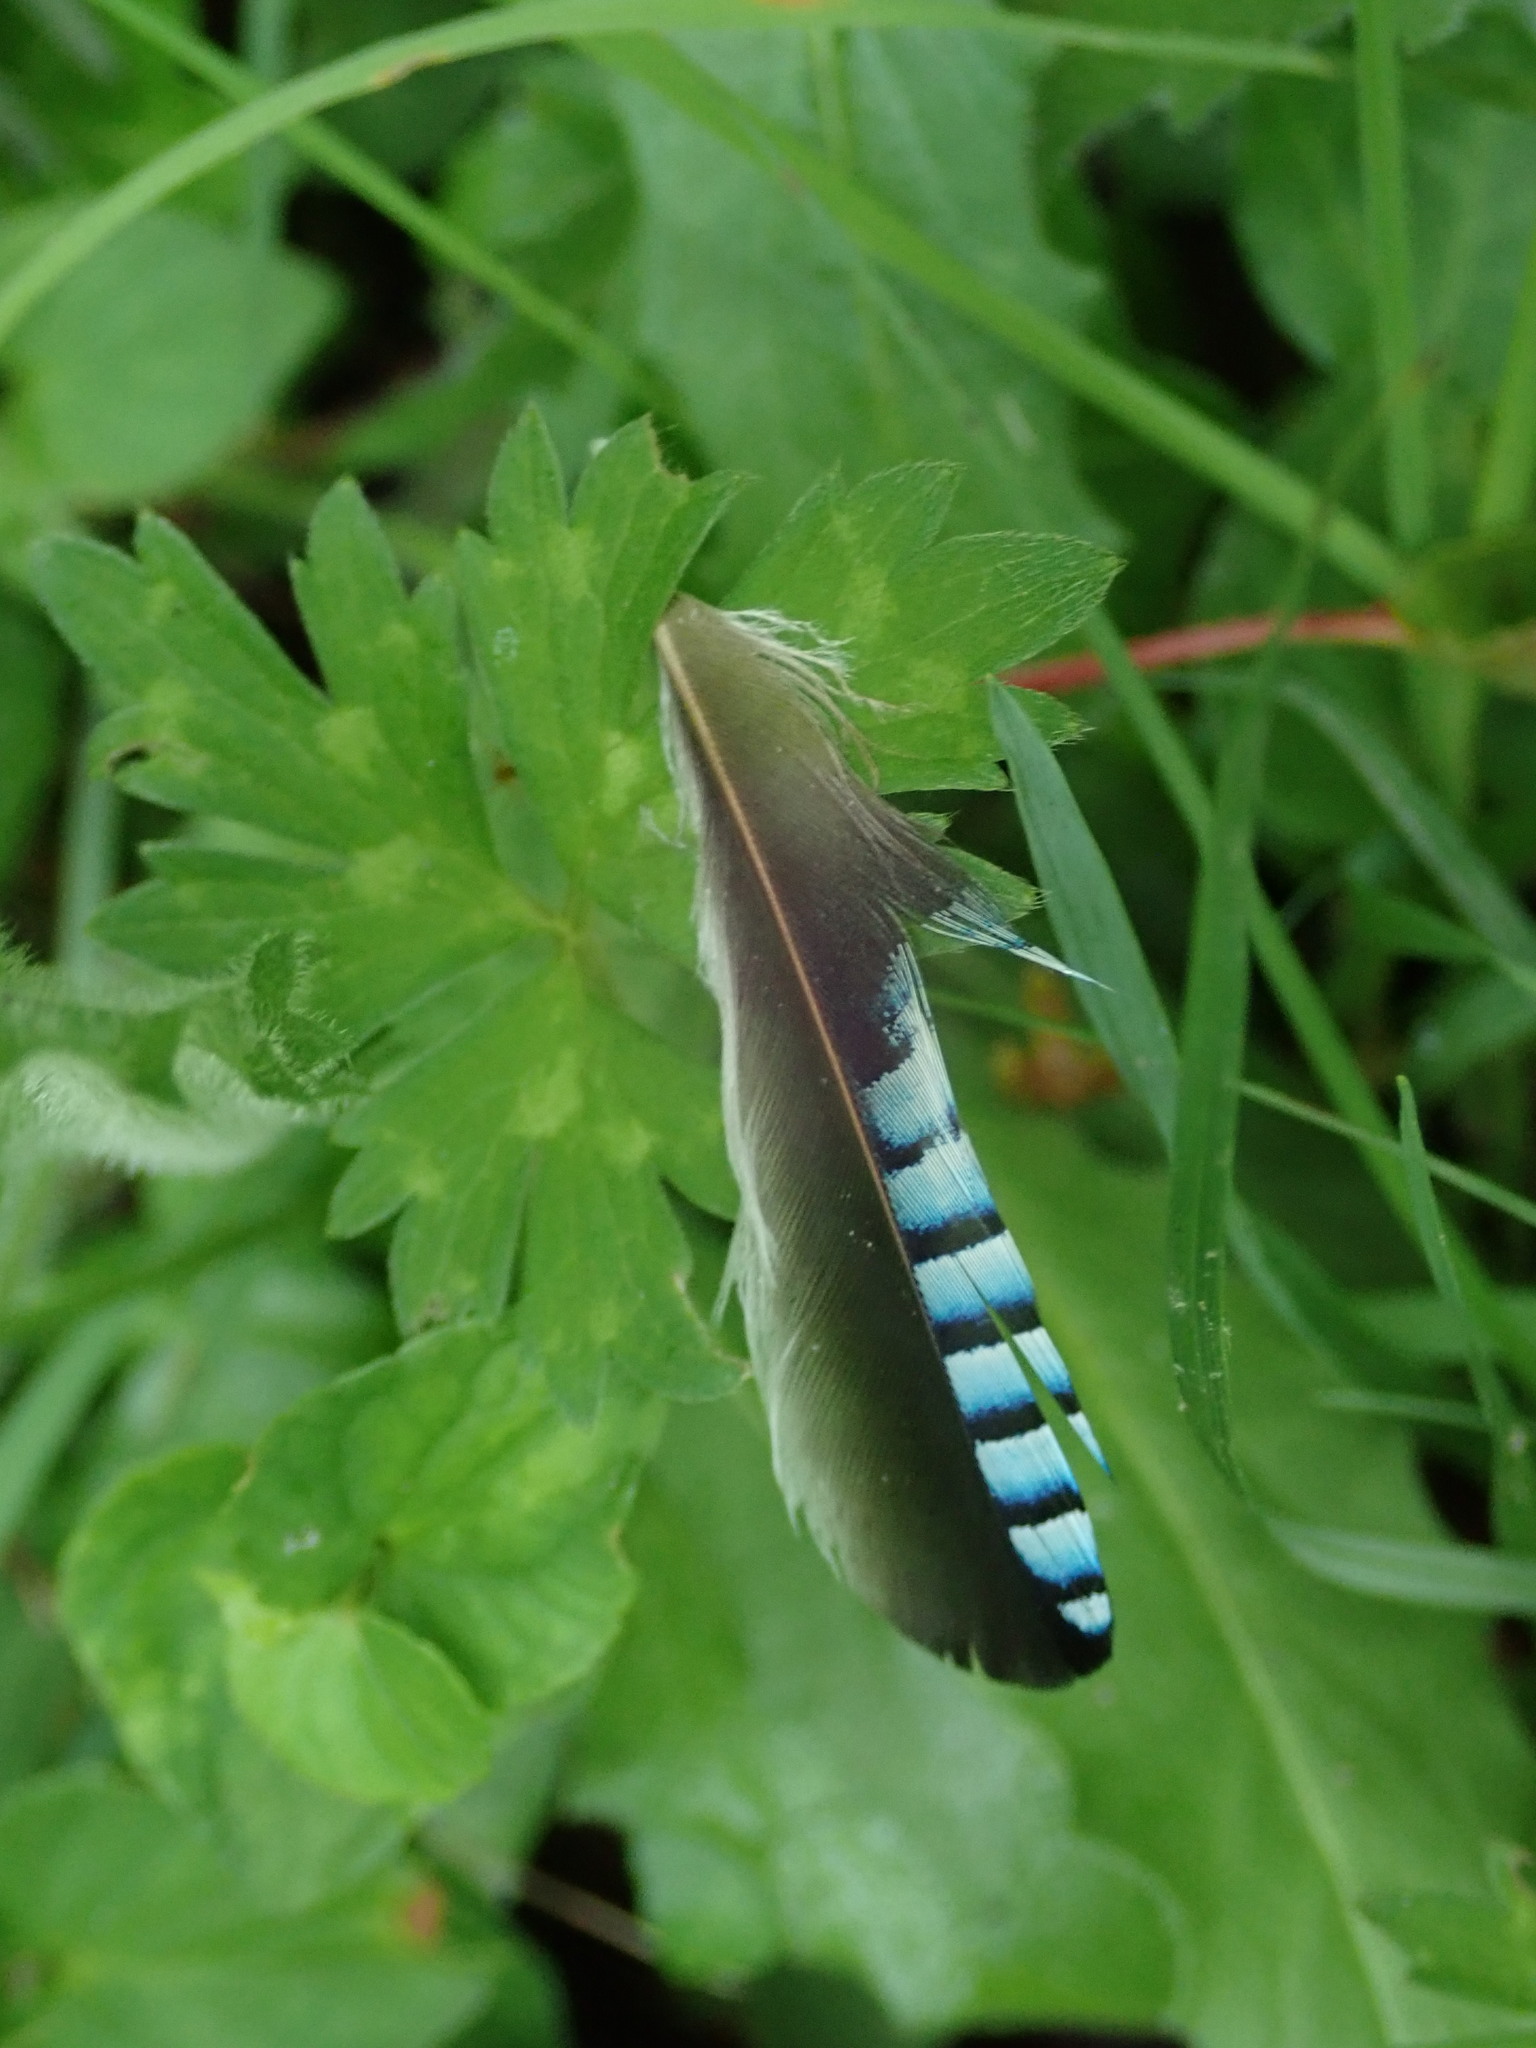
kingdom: Animalia
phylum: Chordata
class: Aves
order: Passeriformes
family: Corvidae
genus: Garrulus
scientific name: Garrulus glandarius
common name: Eurasian jay
